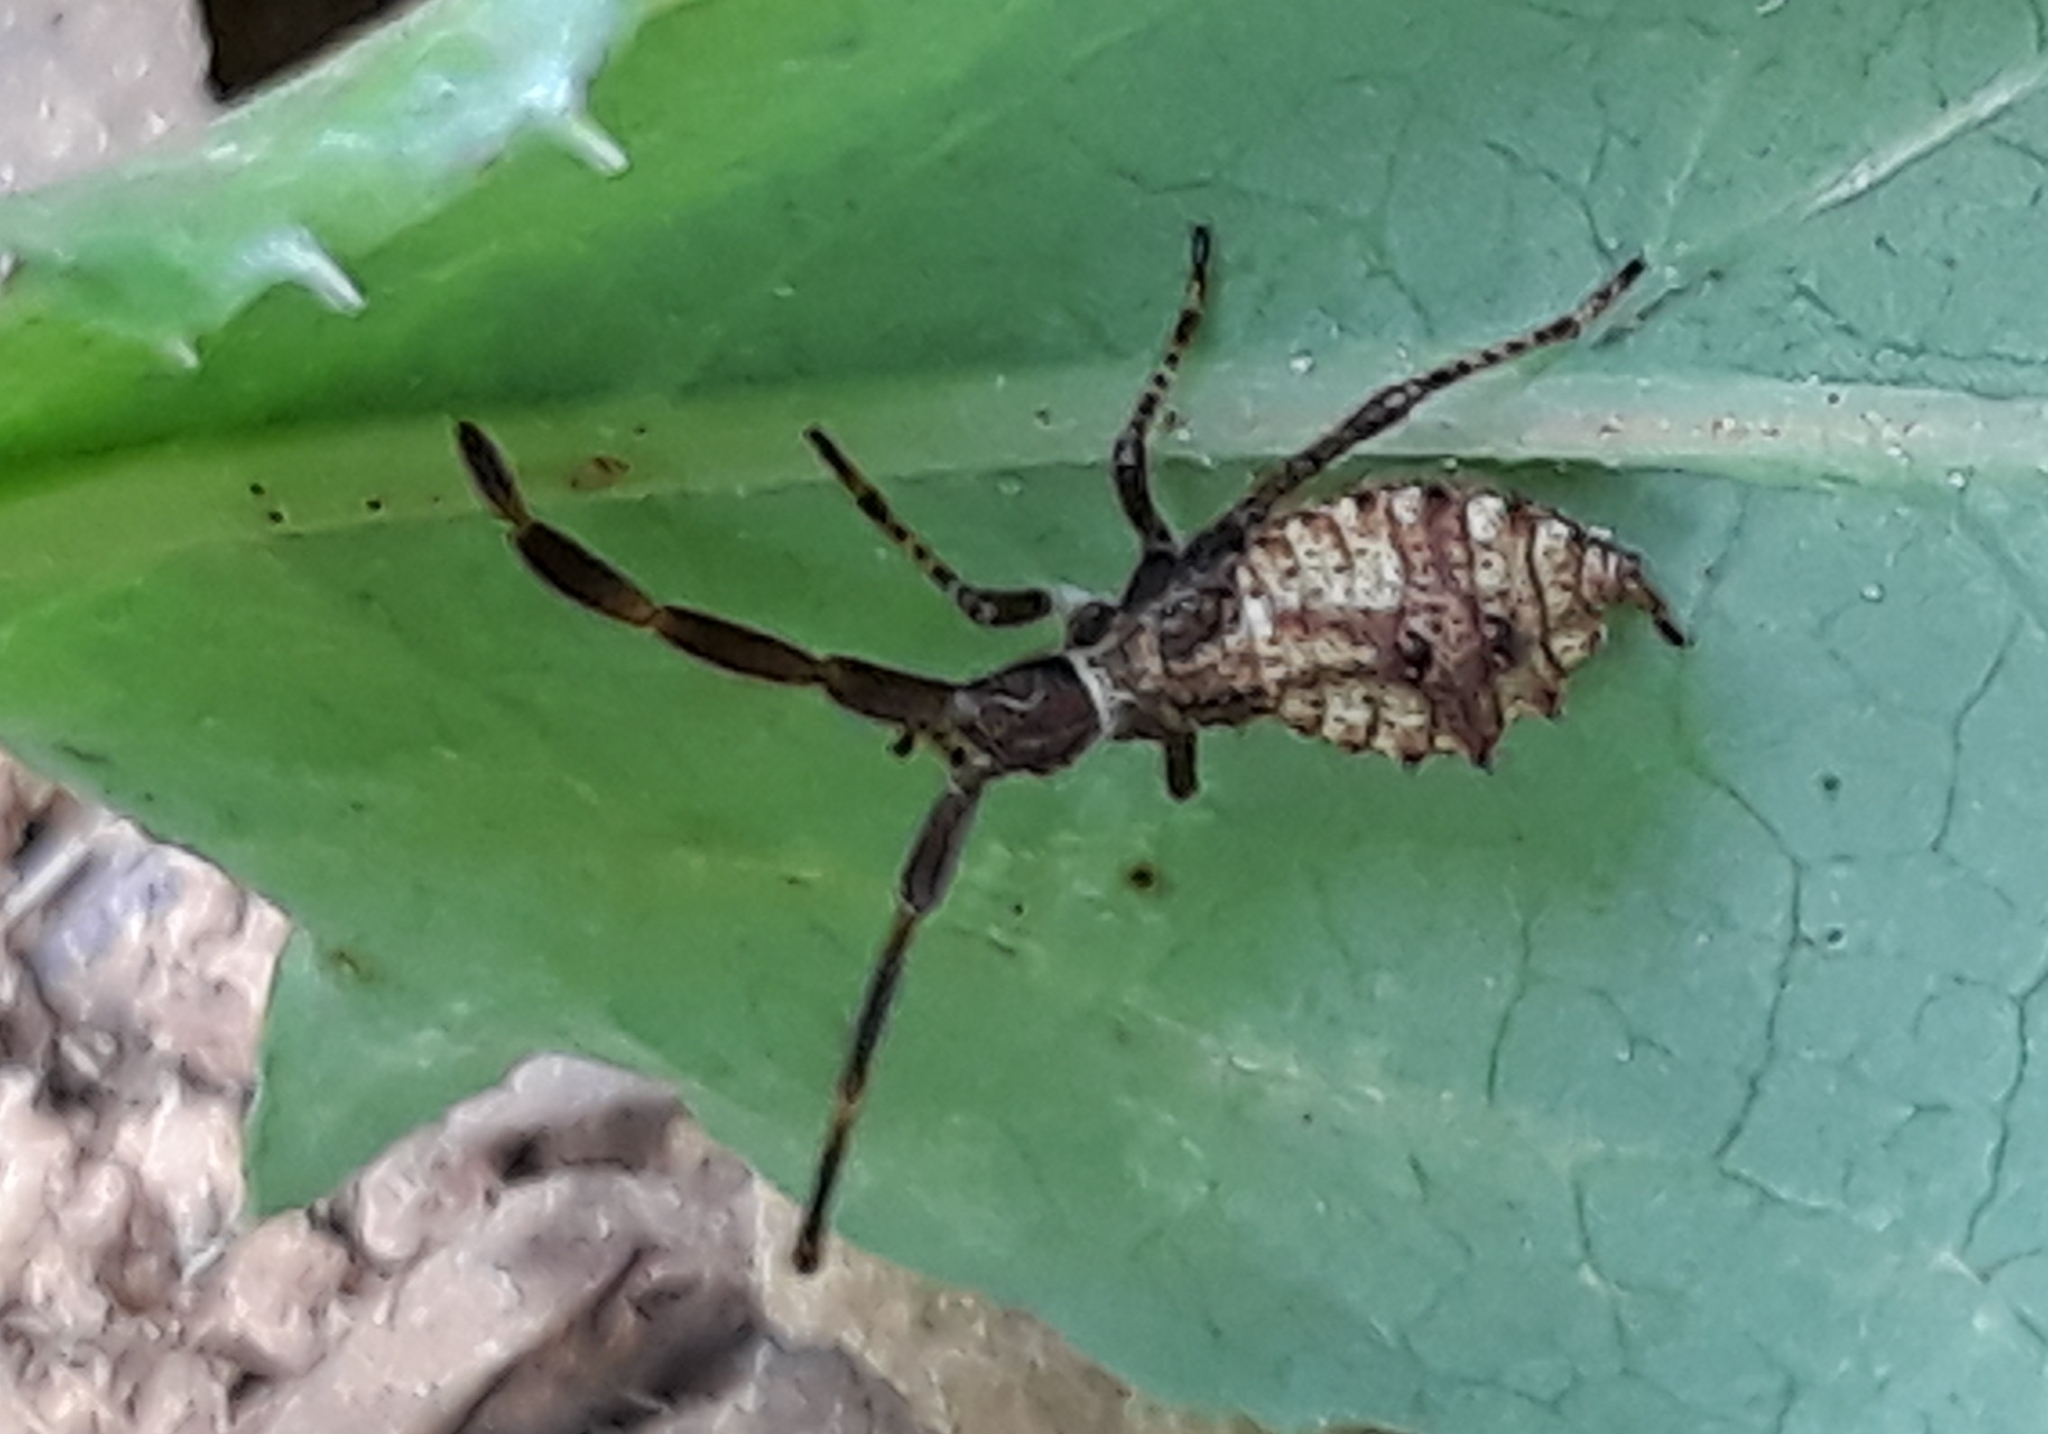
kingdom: Animalia
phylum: Arthropoda
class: Insecta
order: Hemiptera
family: Coreidae
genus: Coreus
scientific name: Coreus marginatus
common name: Dock bug
